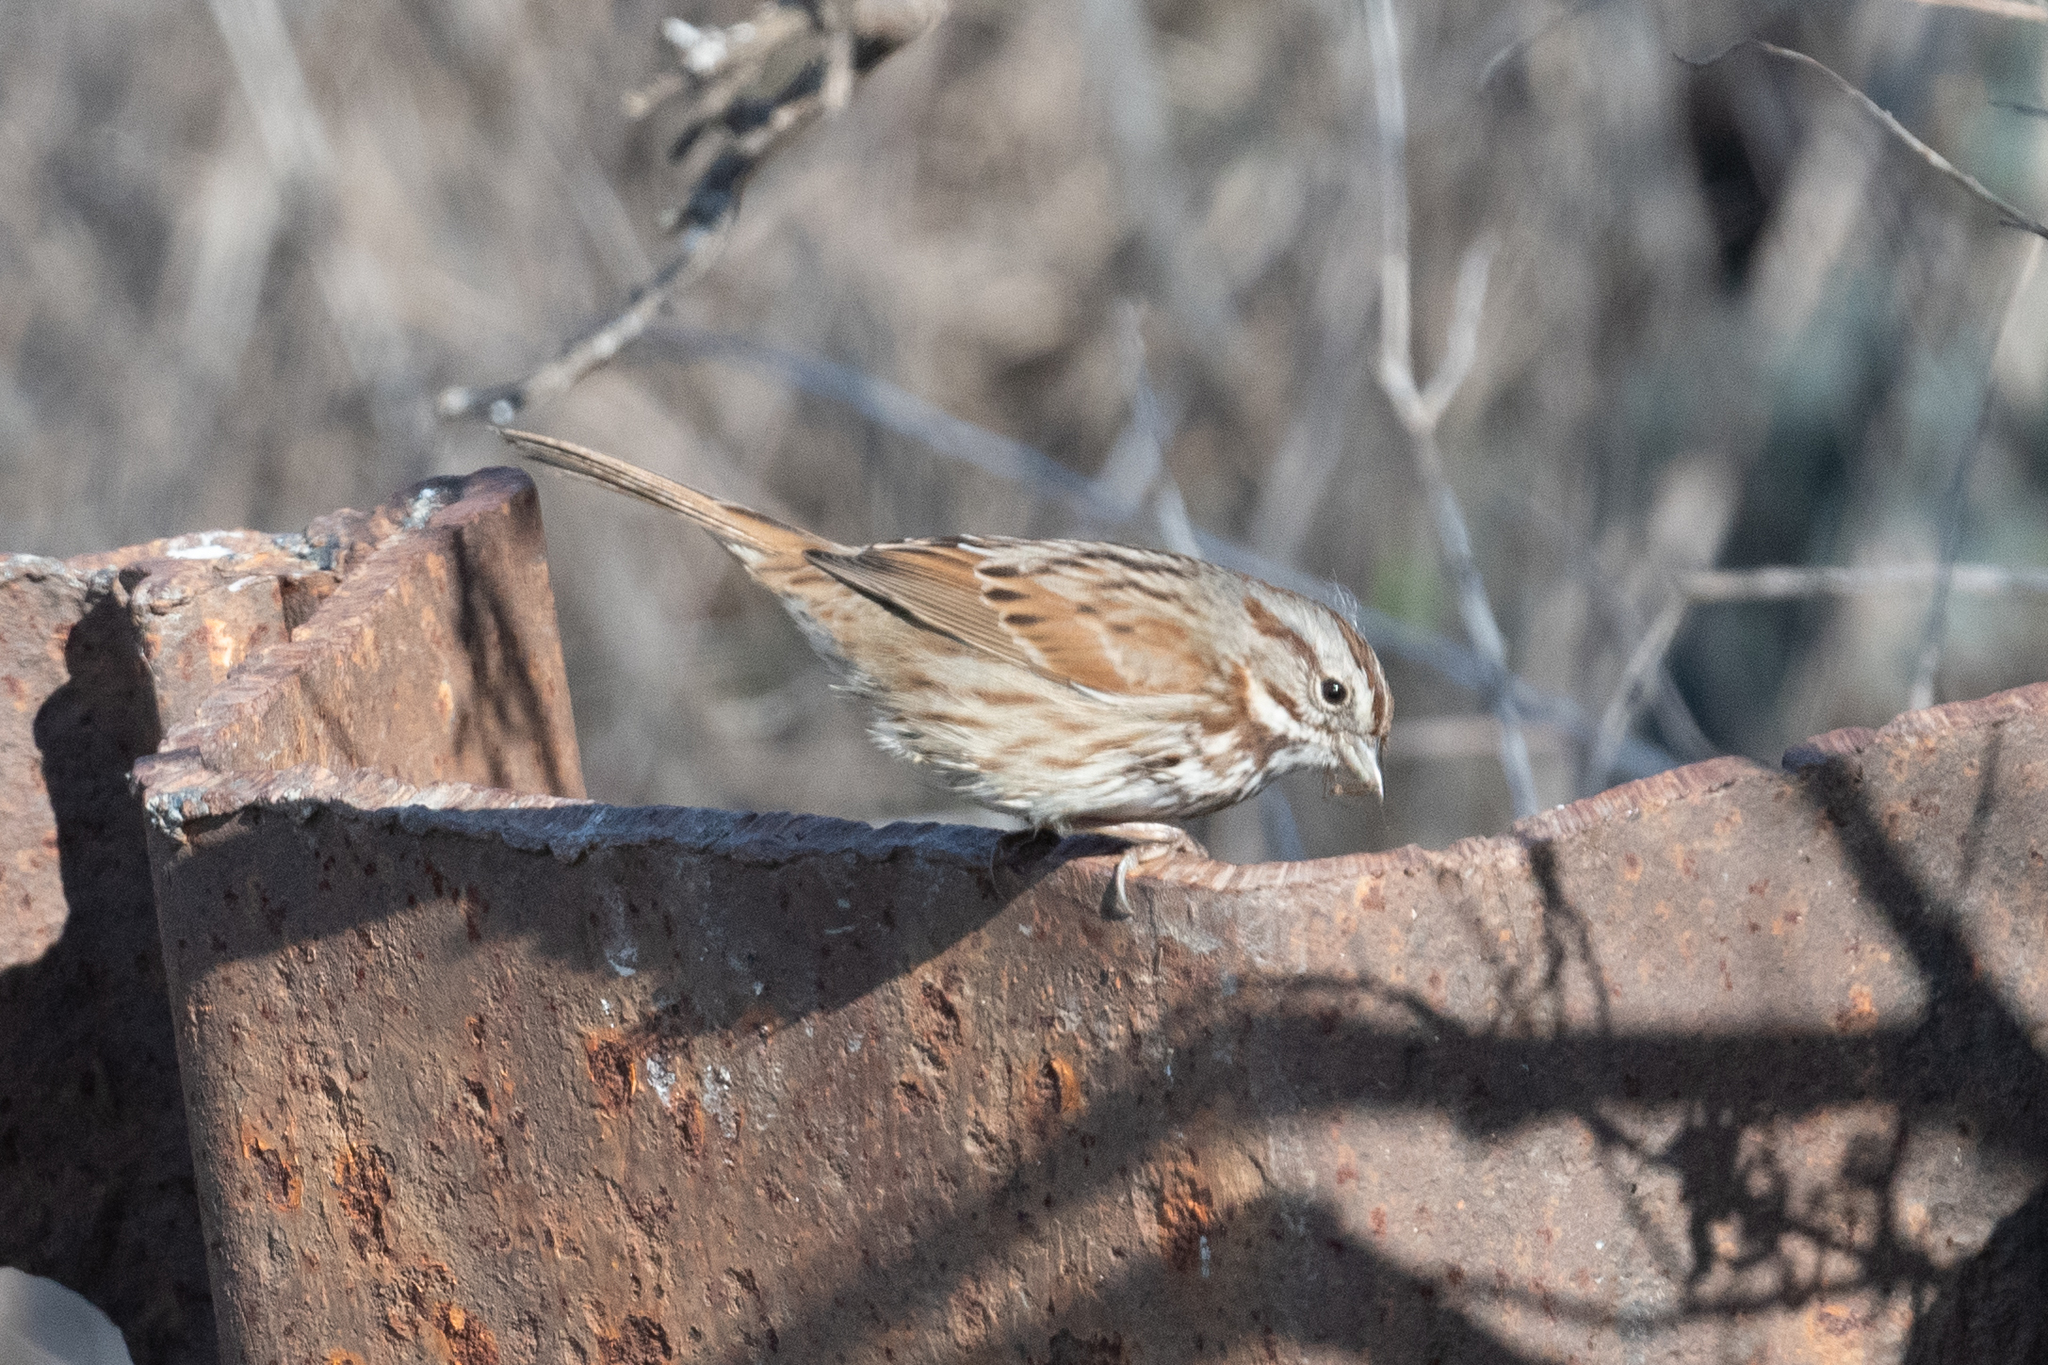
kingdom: Animalia
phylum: Chordata
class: Aves
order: Passeriformes
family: Passerellidae
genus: Melospiza
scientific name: Melospiza melodia
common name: Song sparrow
